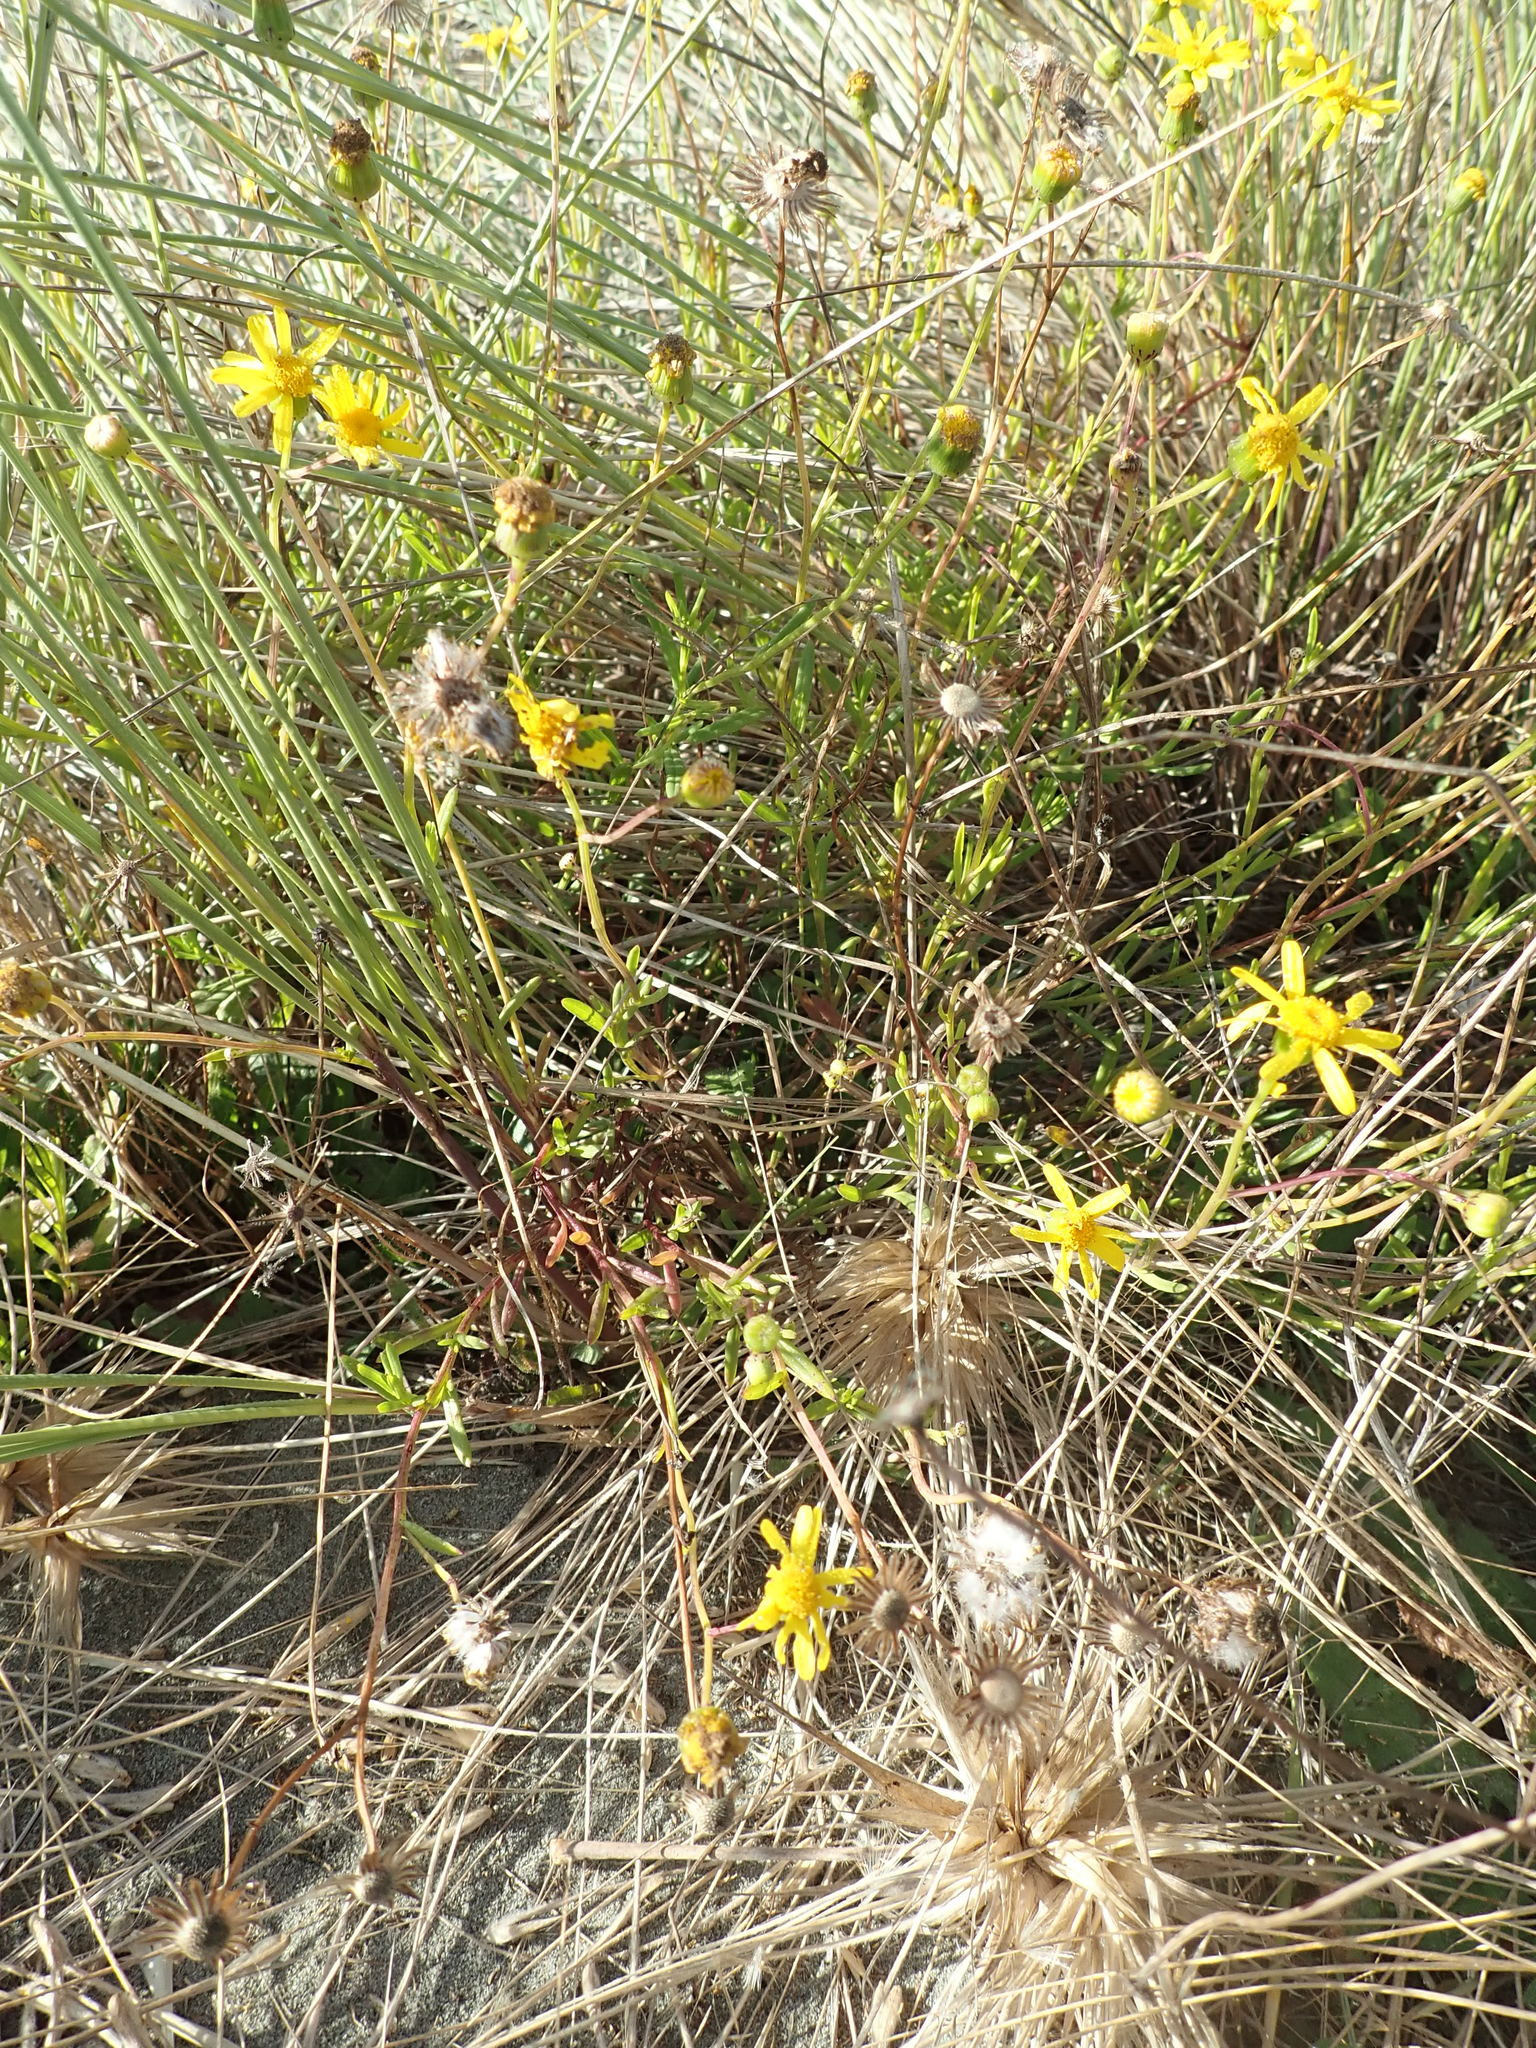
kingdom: Plantae
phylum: Tracheophyta
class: Magnoliopsida
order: Asterales
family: Asteraceae
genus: Senecio
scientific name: Senecio skirrhodon
